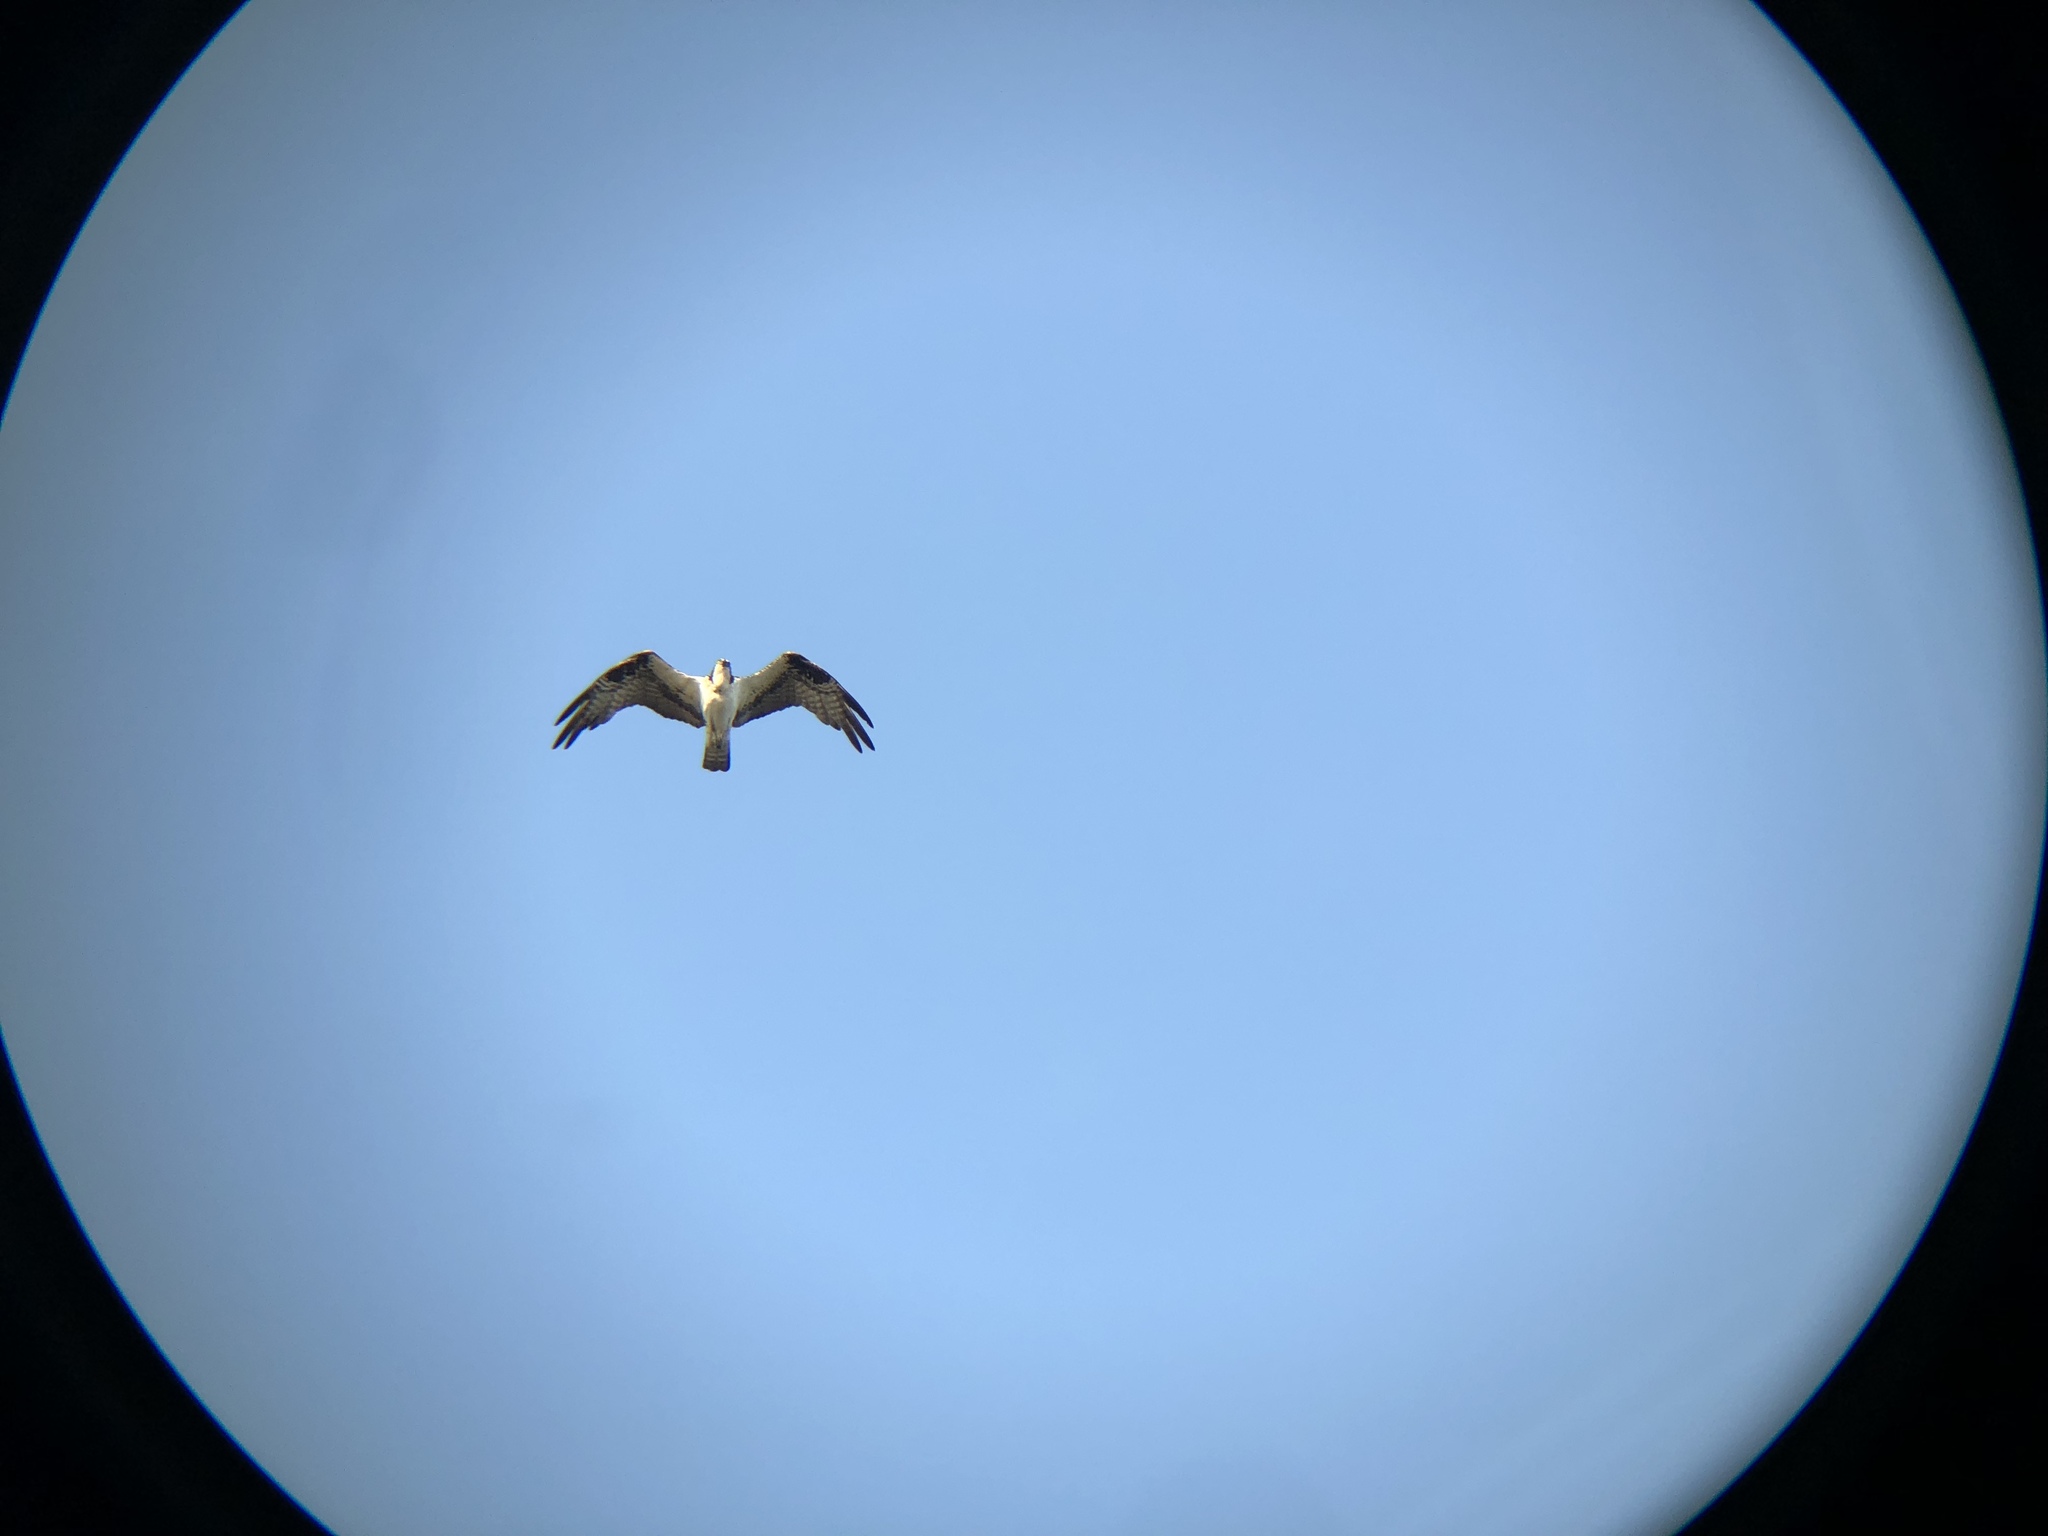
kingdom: Animalia
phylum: Chordata
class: Aves
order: Accipitriformes
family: Pandionidae
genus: Pandion
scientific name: Pandion haliaetus
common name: Osprey
